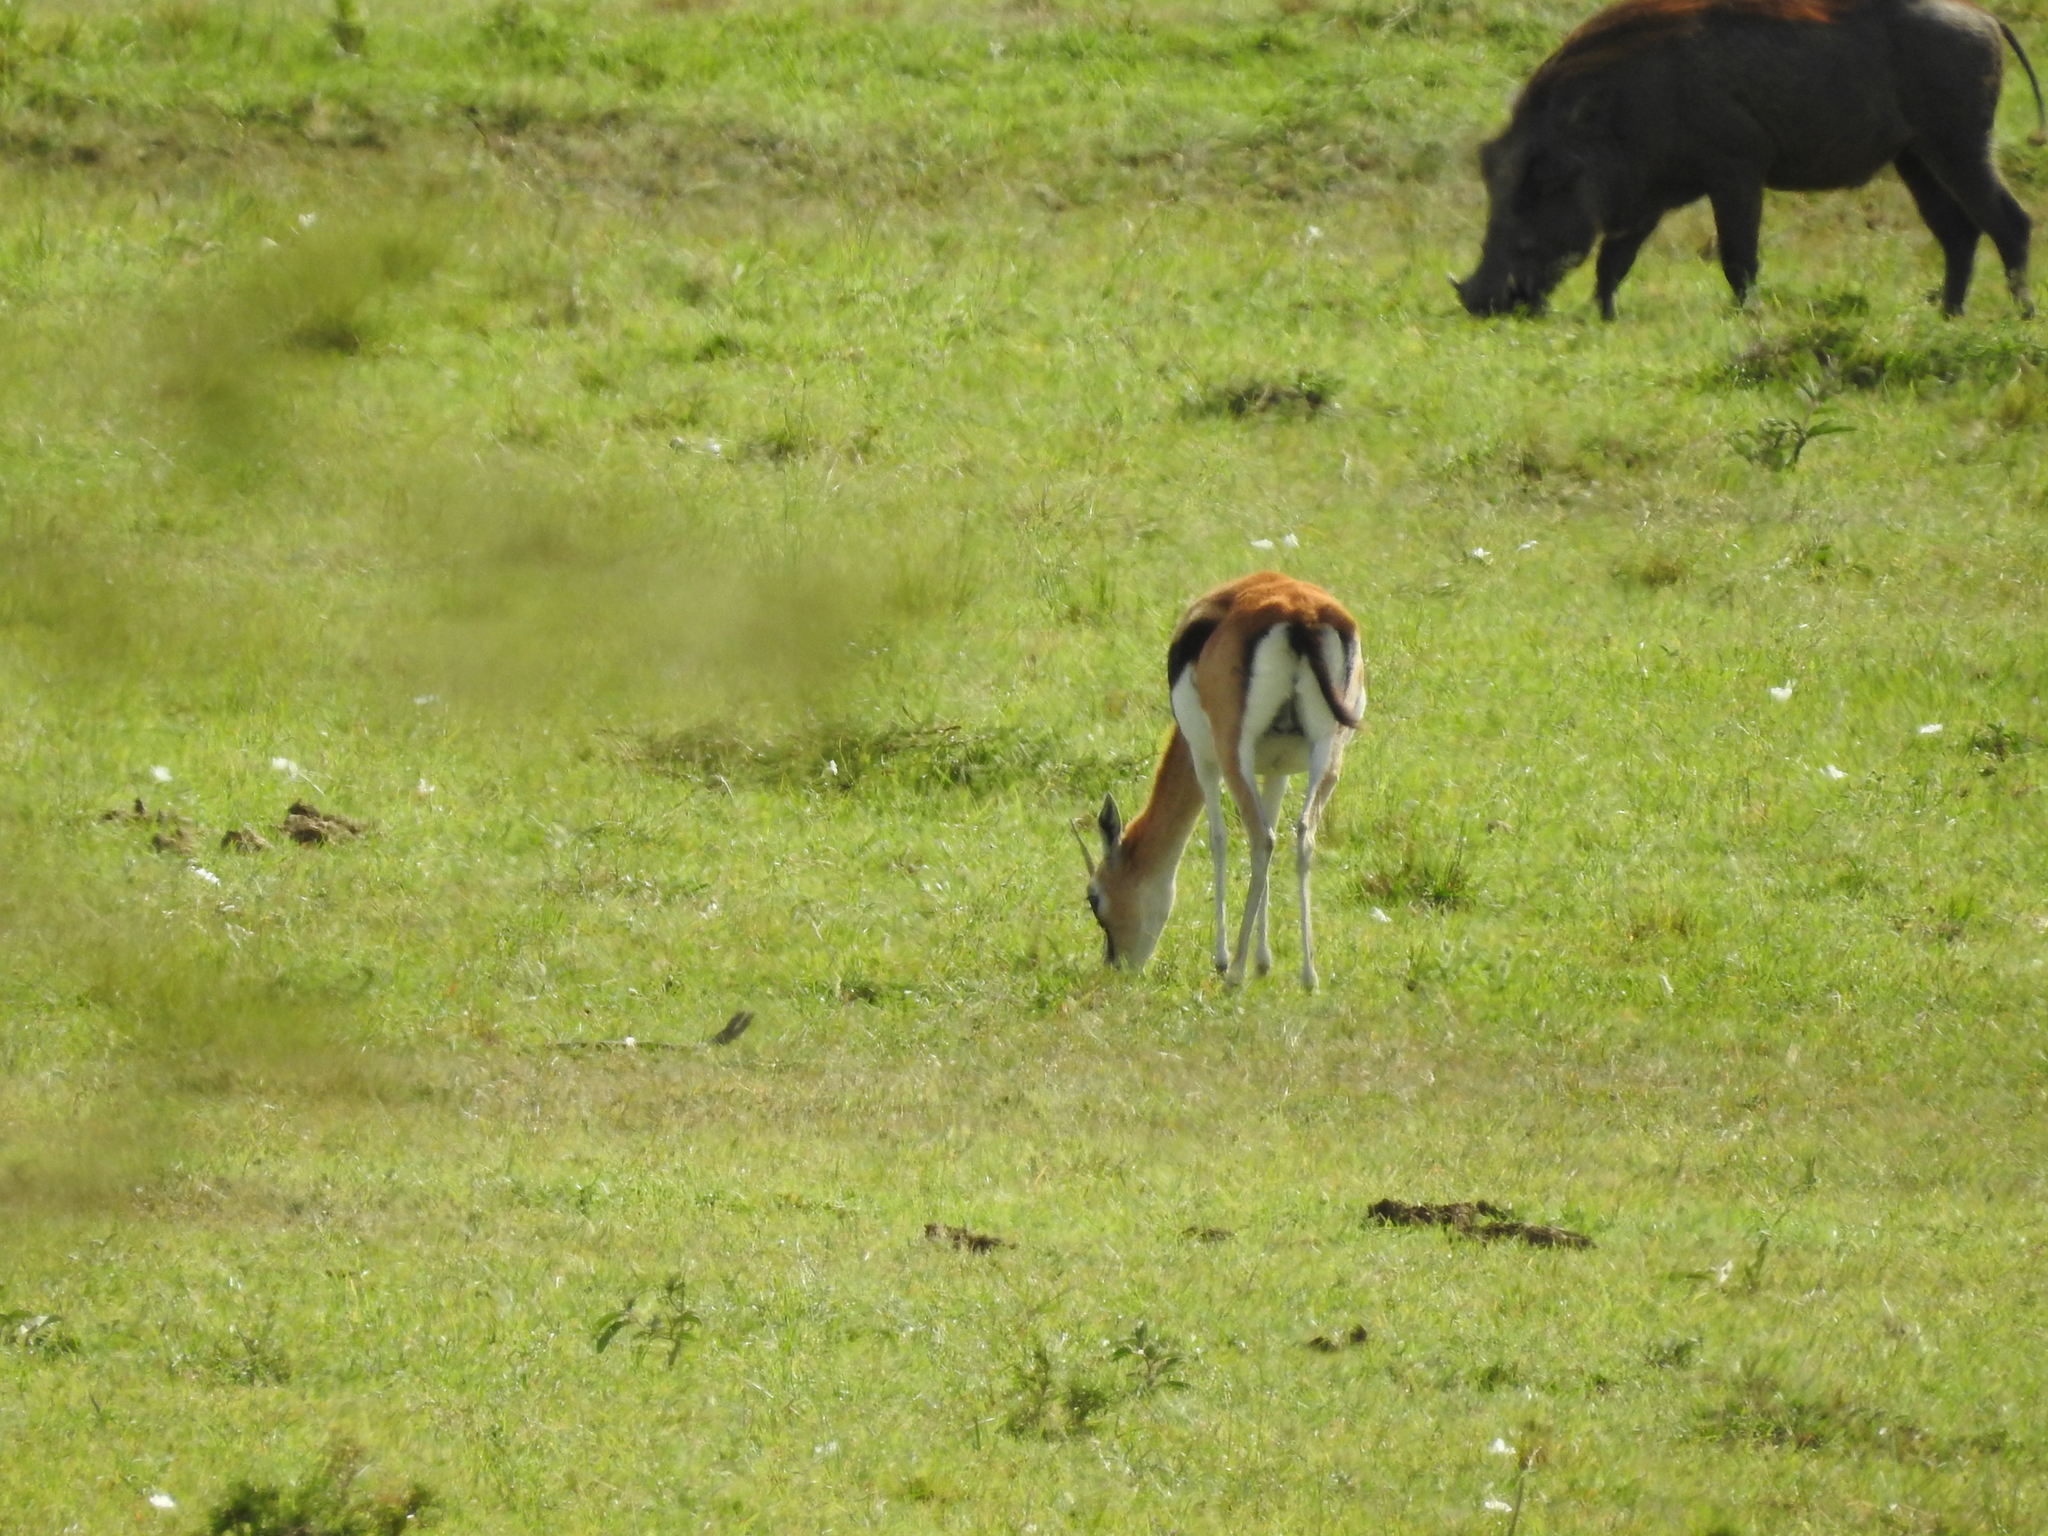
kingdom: Animalia
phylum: Chordata
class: Mammalia
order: Artiodactyla
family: Bovidae
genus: Eudorcas
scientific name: Eudorcas thomsonii
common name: Thomson's gazelle
